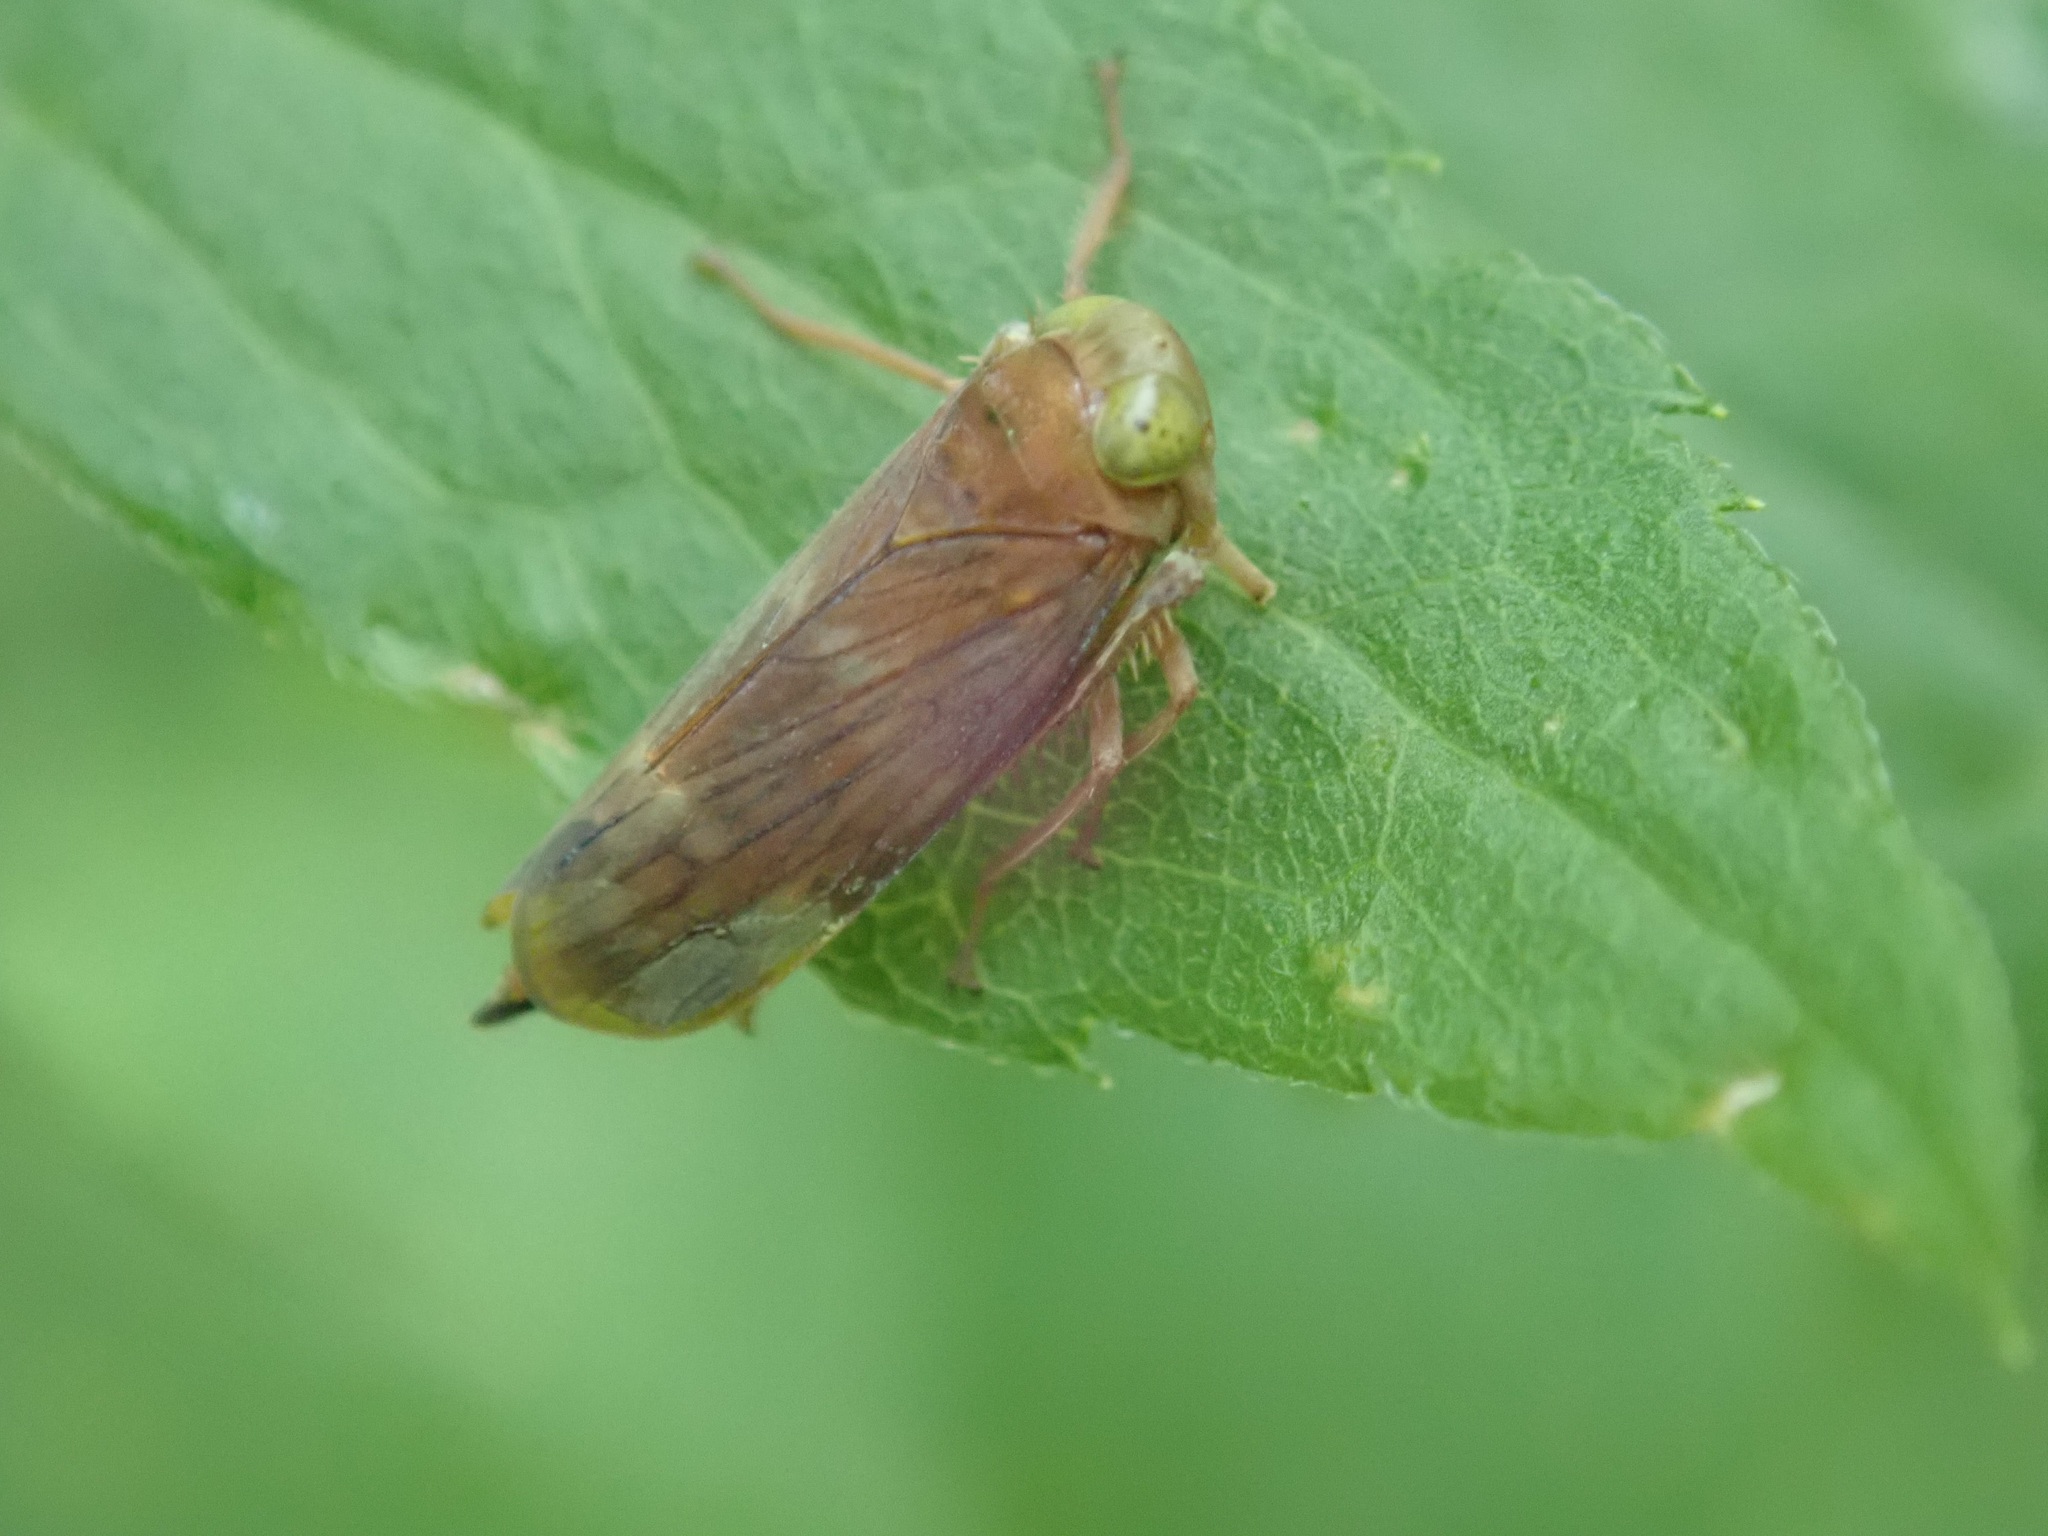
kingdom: Animalia
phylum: Arthropoda
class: Insecta
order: Hemiptera
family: Cicadellidae
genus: Jikradia
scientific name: Jikradia olitoria
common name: Coppery leafhopper
